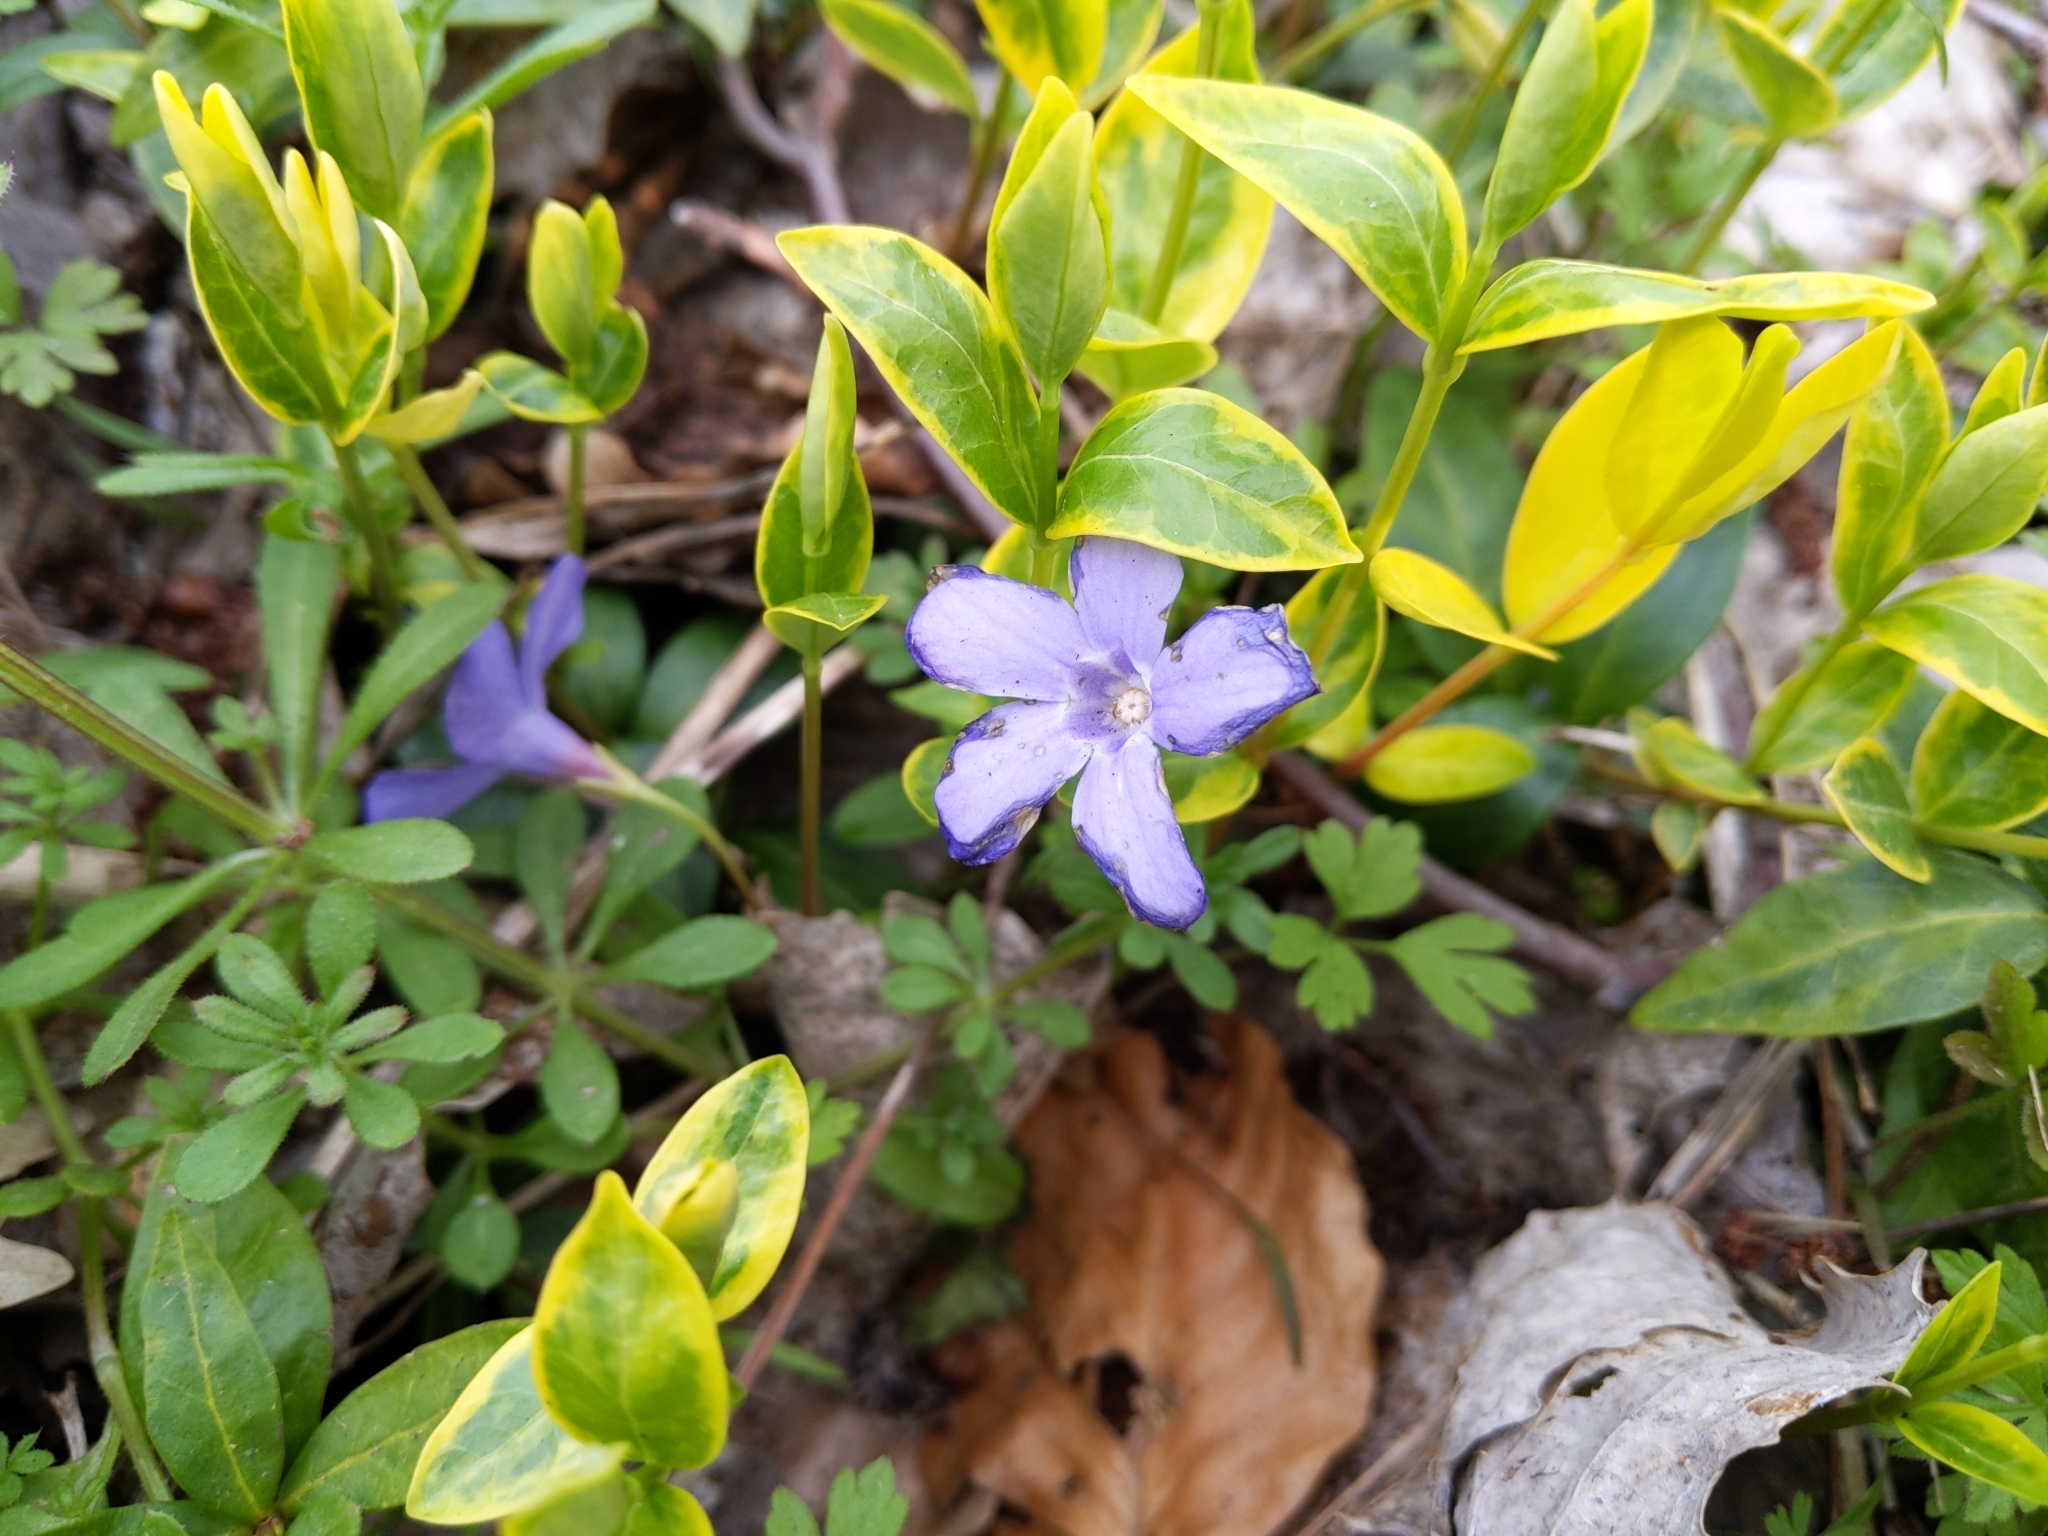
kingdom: Plantae
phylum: Tracheophyta
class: Magnoliopsida
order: Gentianales
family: Apocynaceae
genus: Vinca
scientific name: Vinca minor
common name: Lesser periwinkle
